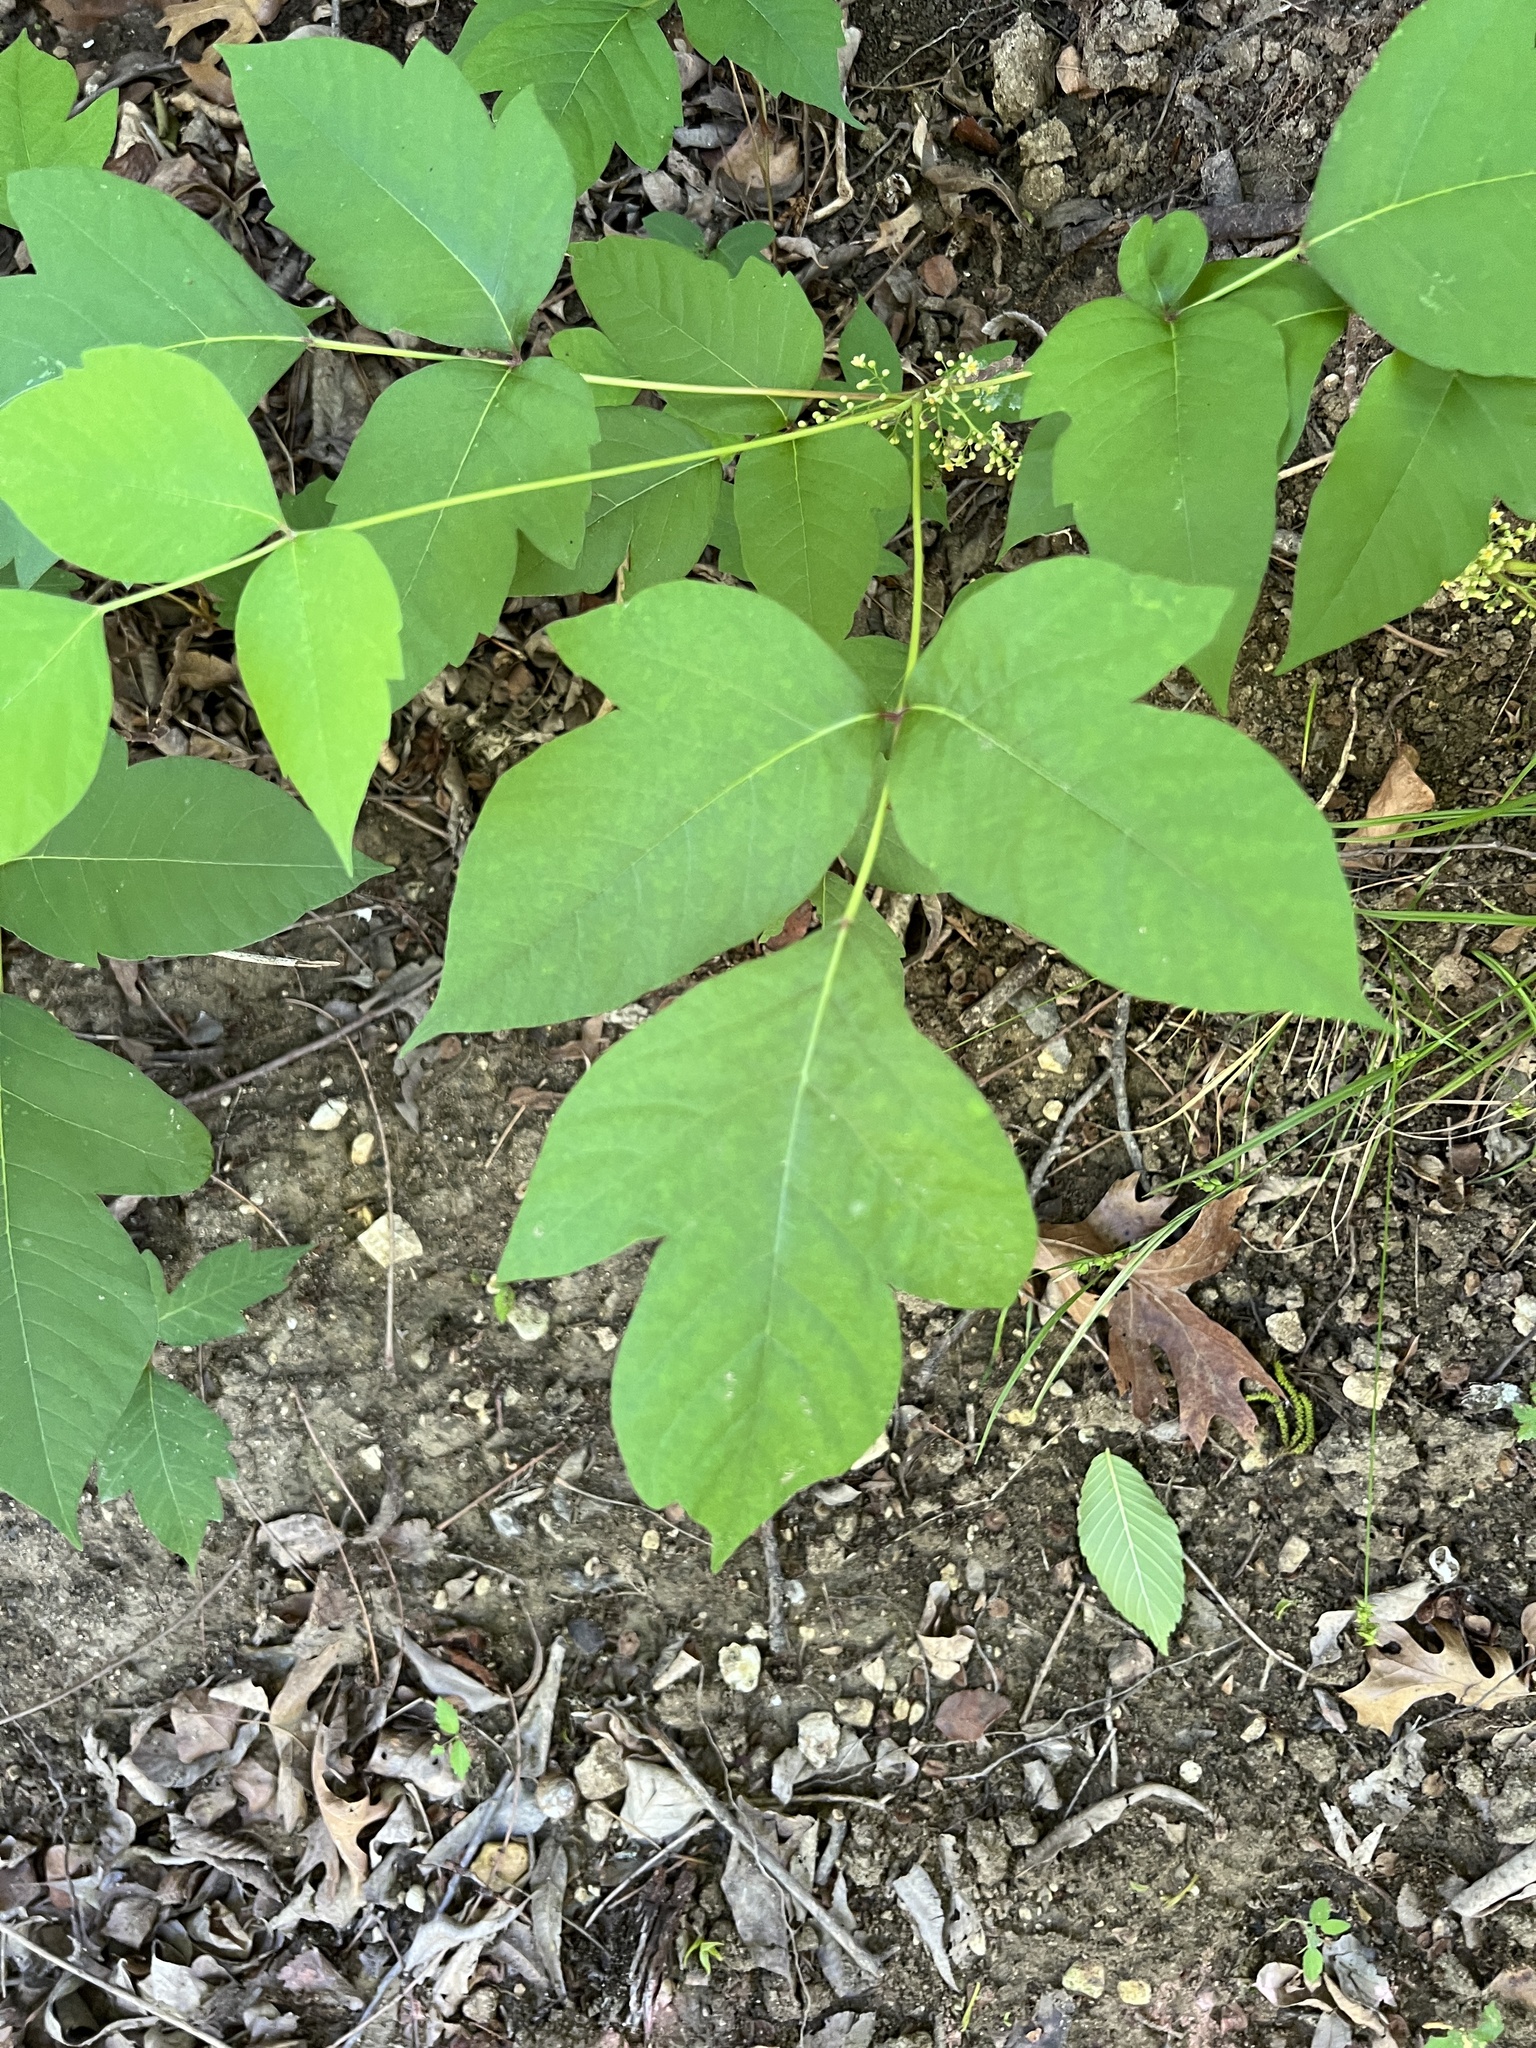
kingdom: Plantae
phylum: Tracheophyta
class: Magnoliopsida
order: Sapindales
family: Anacardiaceae
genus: Toxicodendron
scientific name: Toxicodendron radicans
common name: Poison ivy
